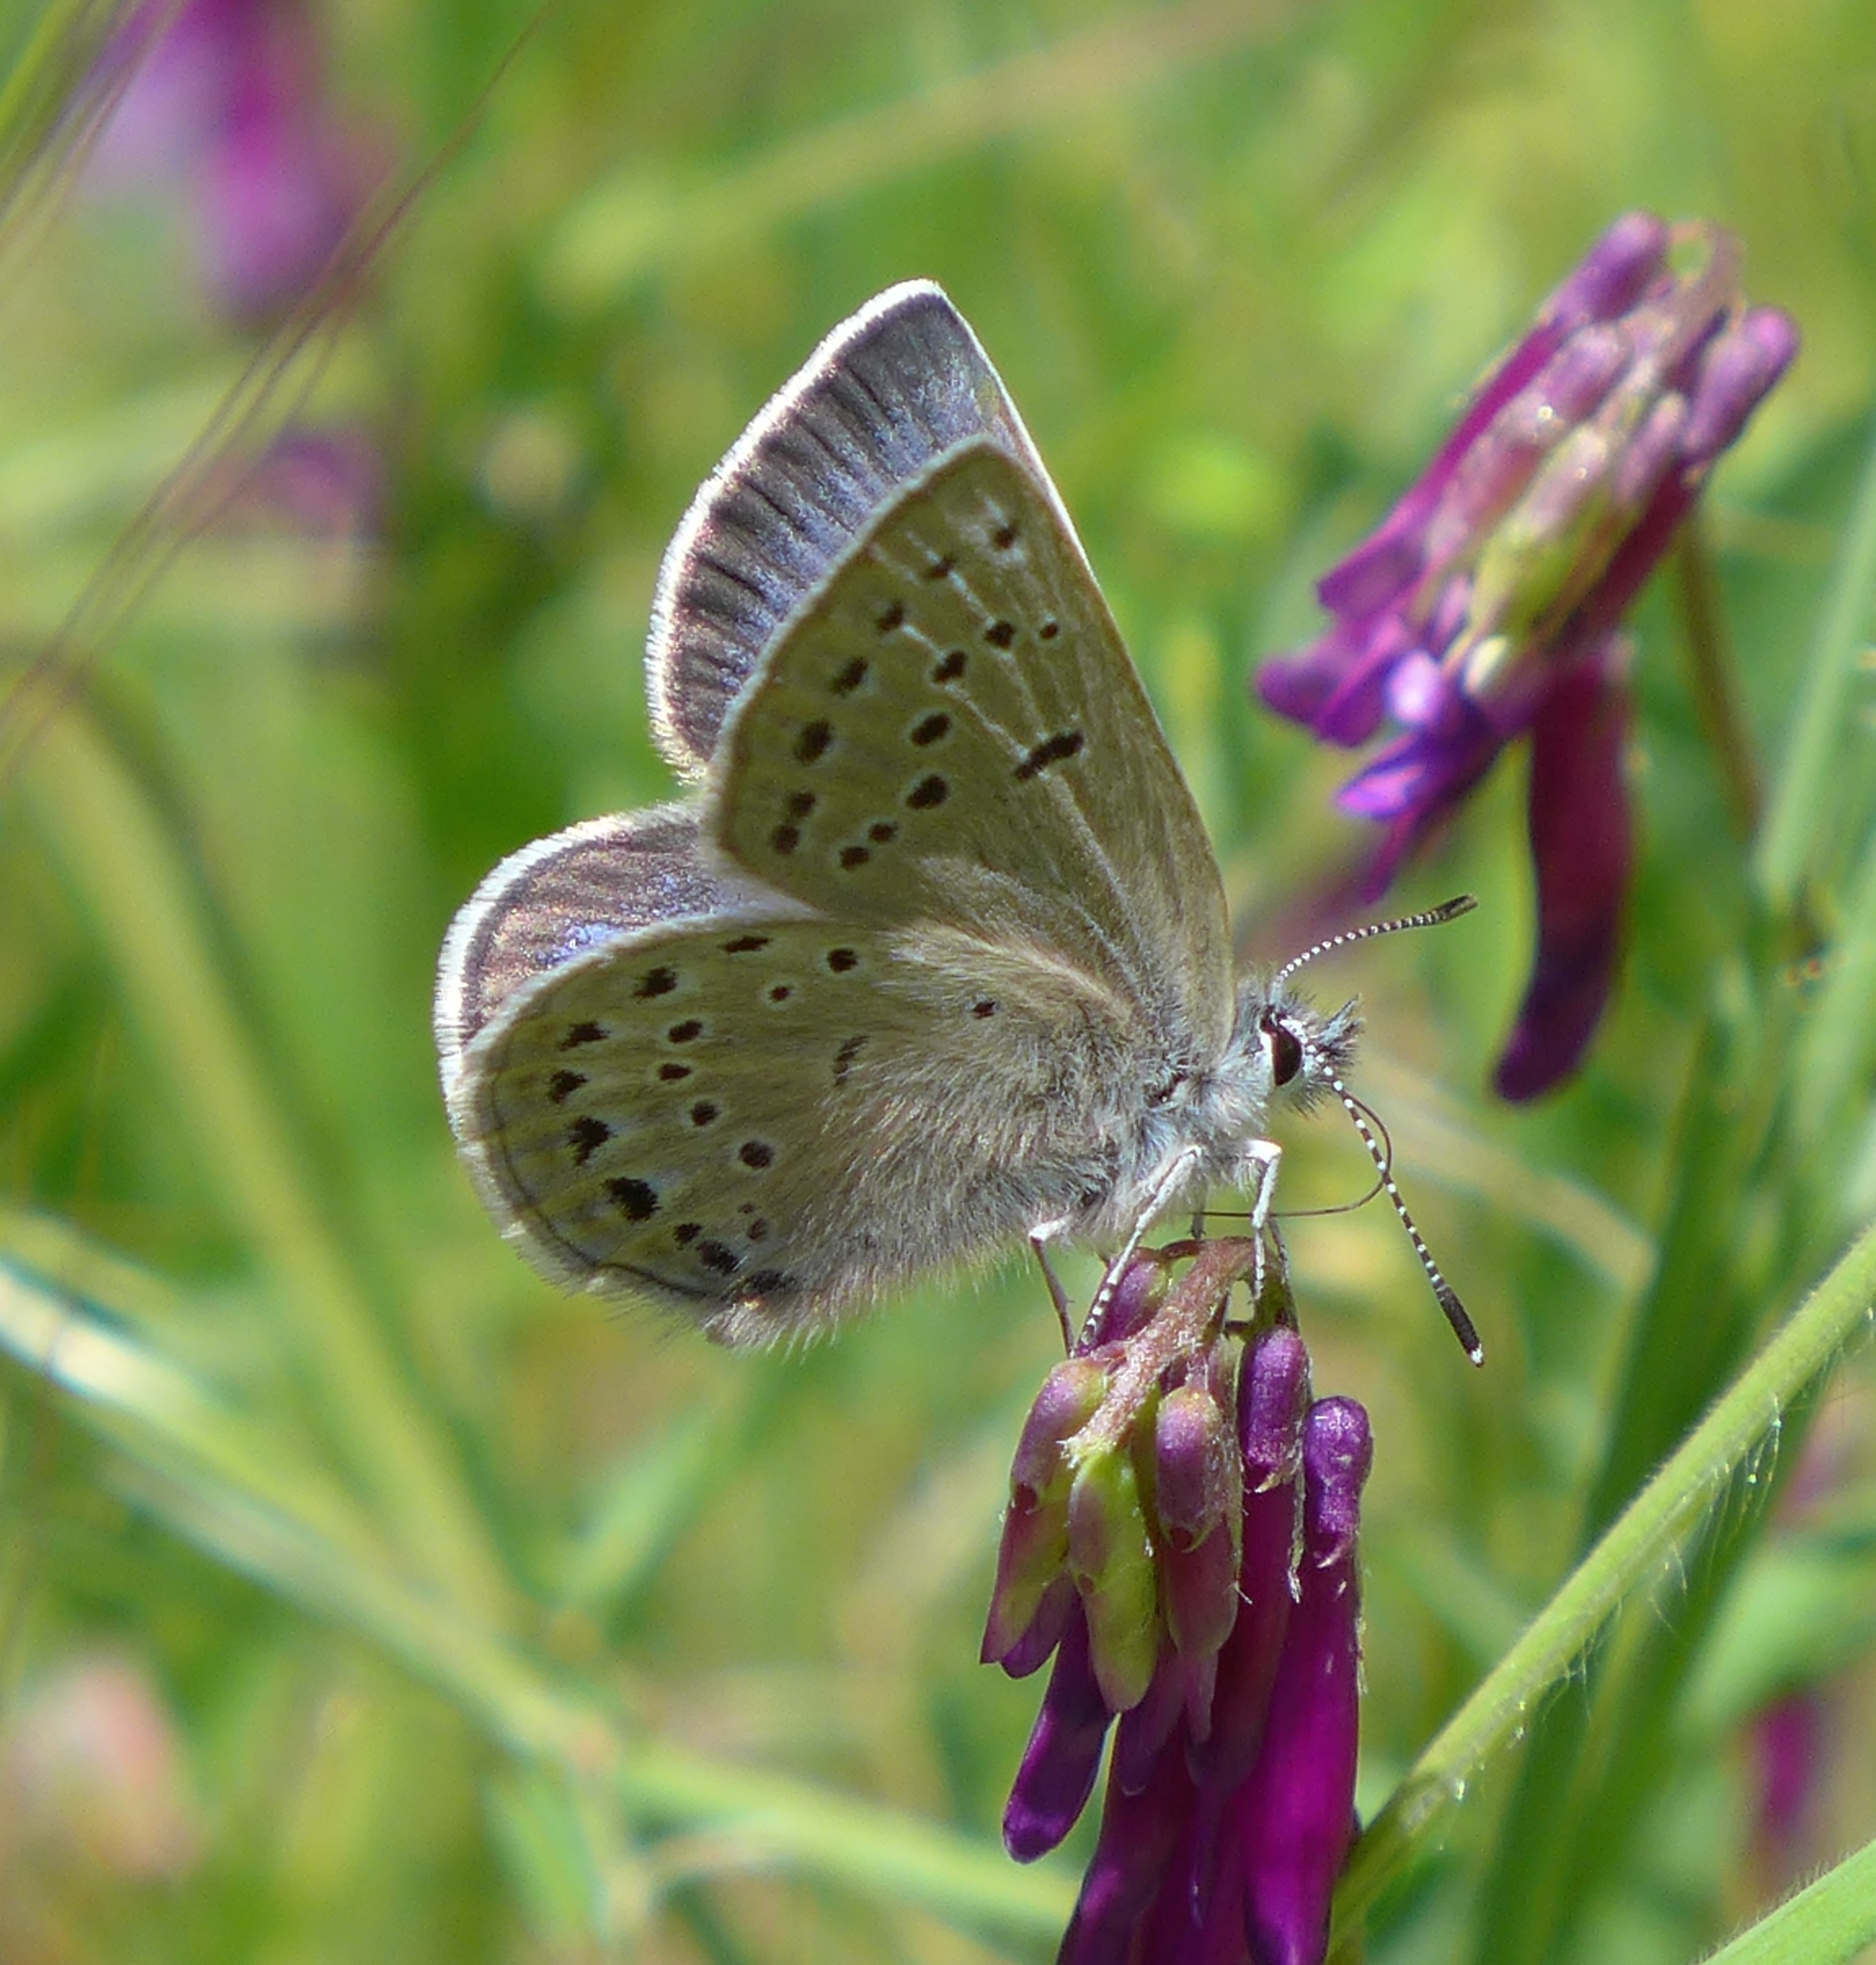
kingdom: Animalia
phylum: Arthropoda
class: Insecta
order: Lepidoptera
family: Lycaenidae
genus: Icaricia
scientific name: Icaricia icarioides
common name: Boisduval's blue
